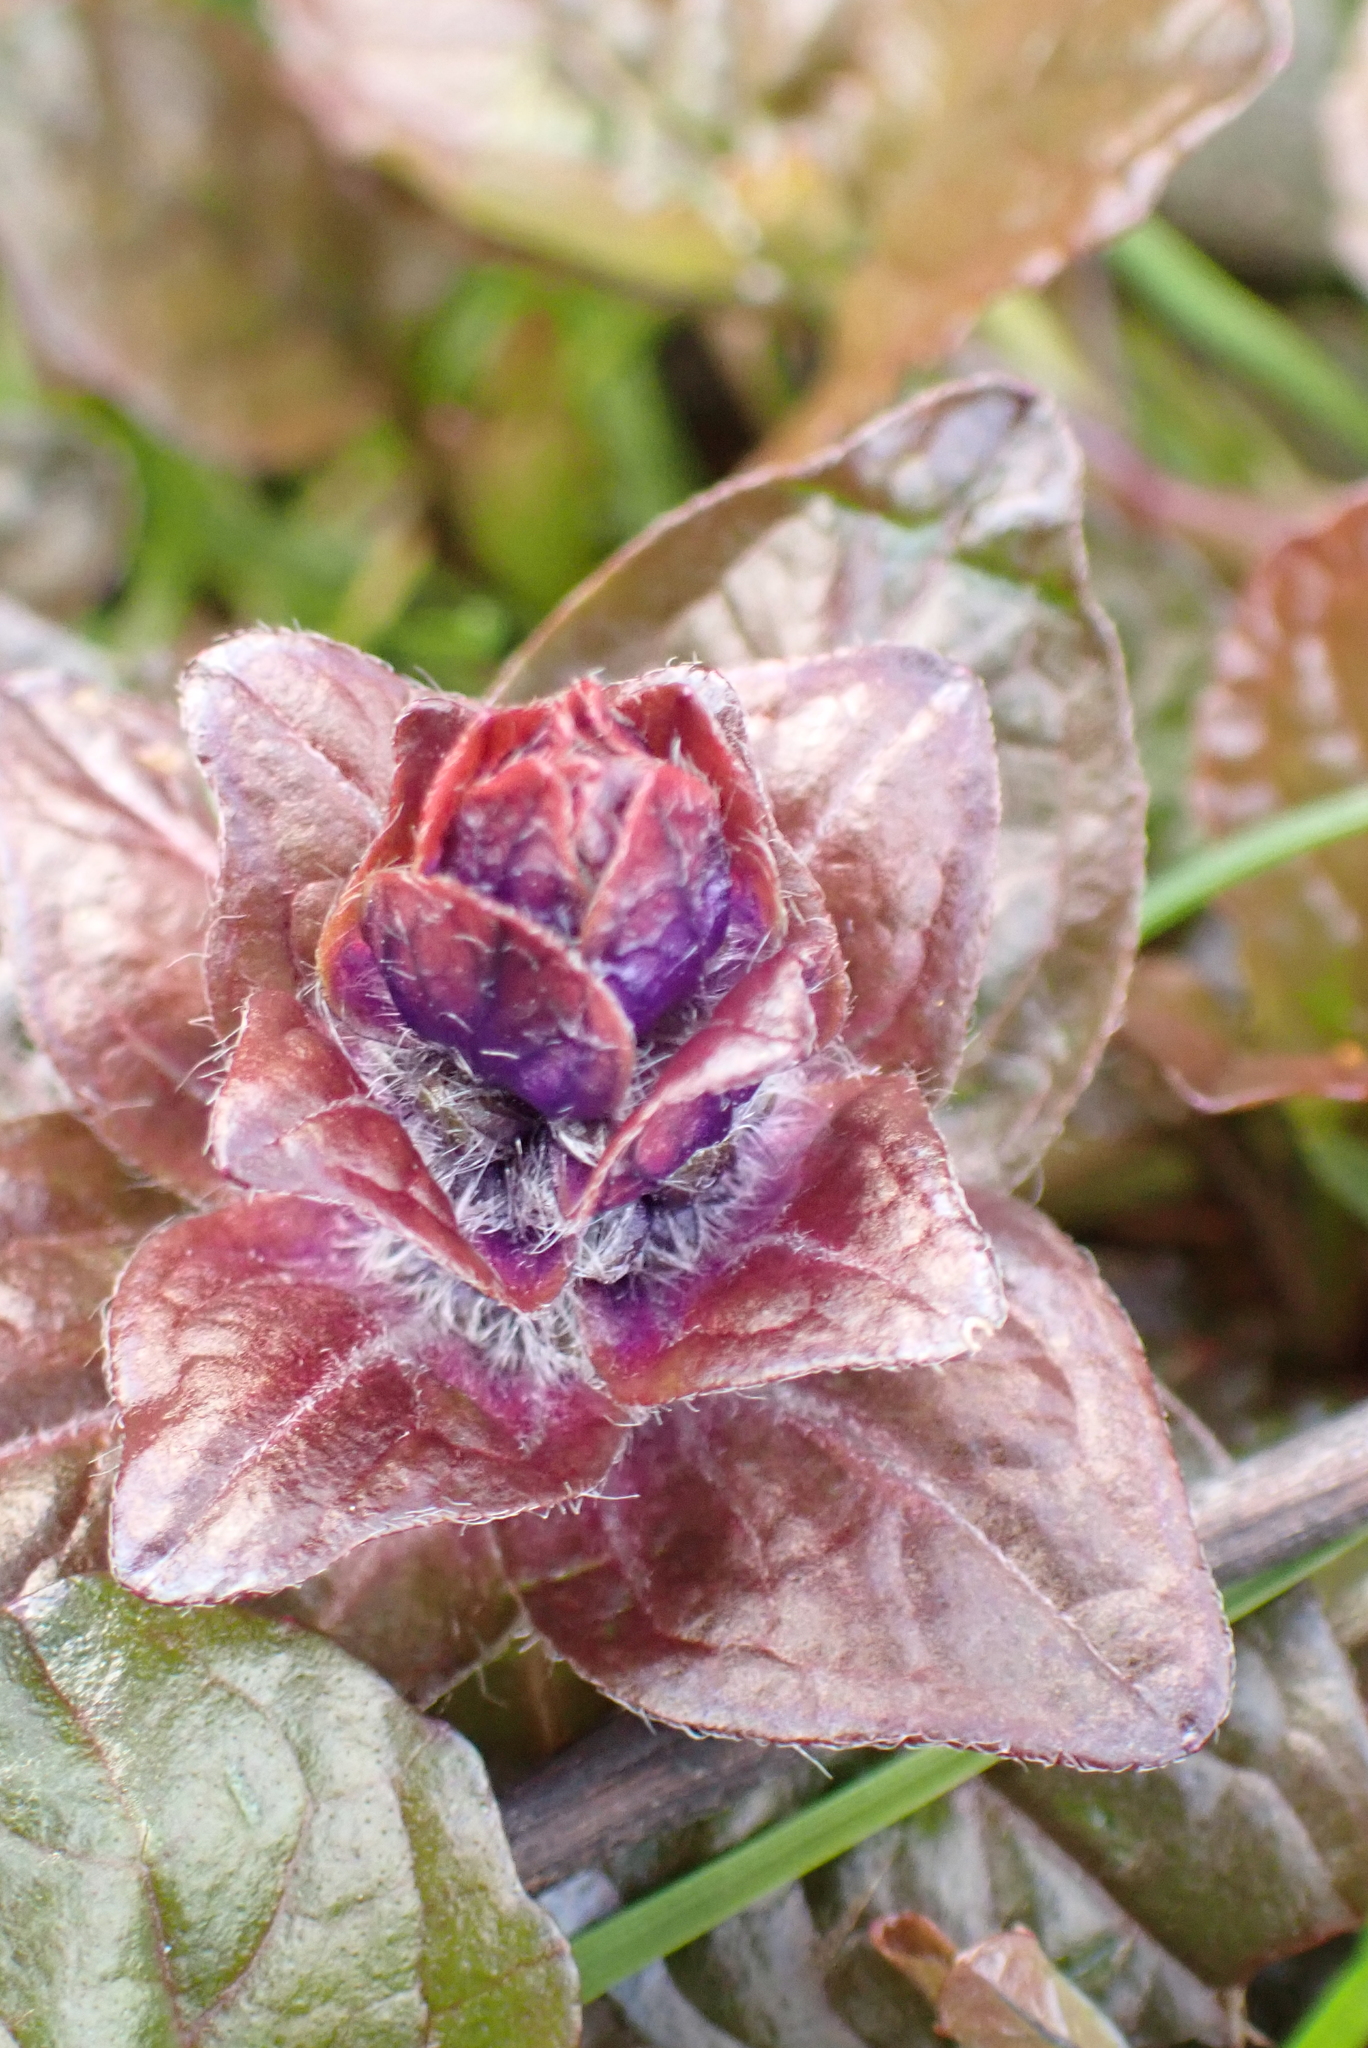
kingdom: Plantae
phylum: Tracheophyta
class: Magnoliopsida
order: Lamiales
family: Lamiaceae
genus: Ajuga
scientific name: Ajuga reptans
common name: Bugle
